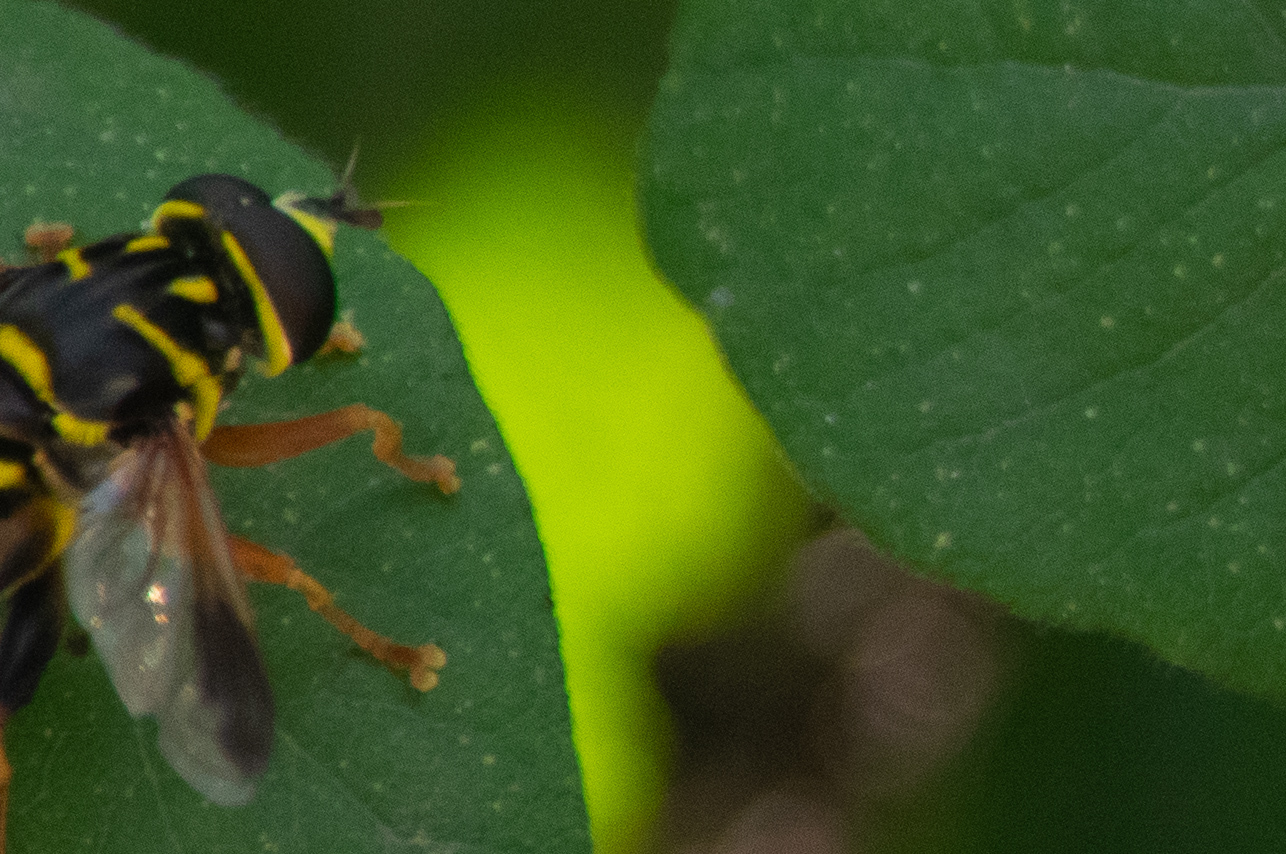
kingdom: Animalia
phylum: Arthropoda
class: Insecta
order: Diptera
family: Syrphidae
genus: Meromacrus
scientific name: Meromacrus acutus
